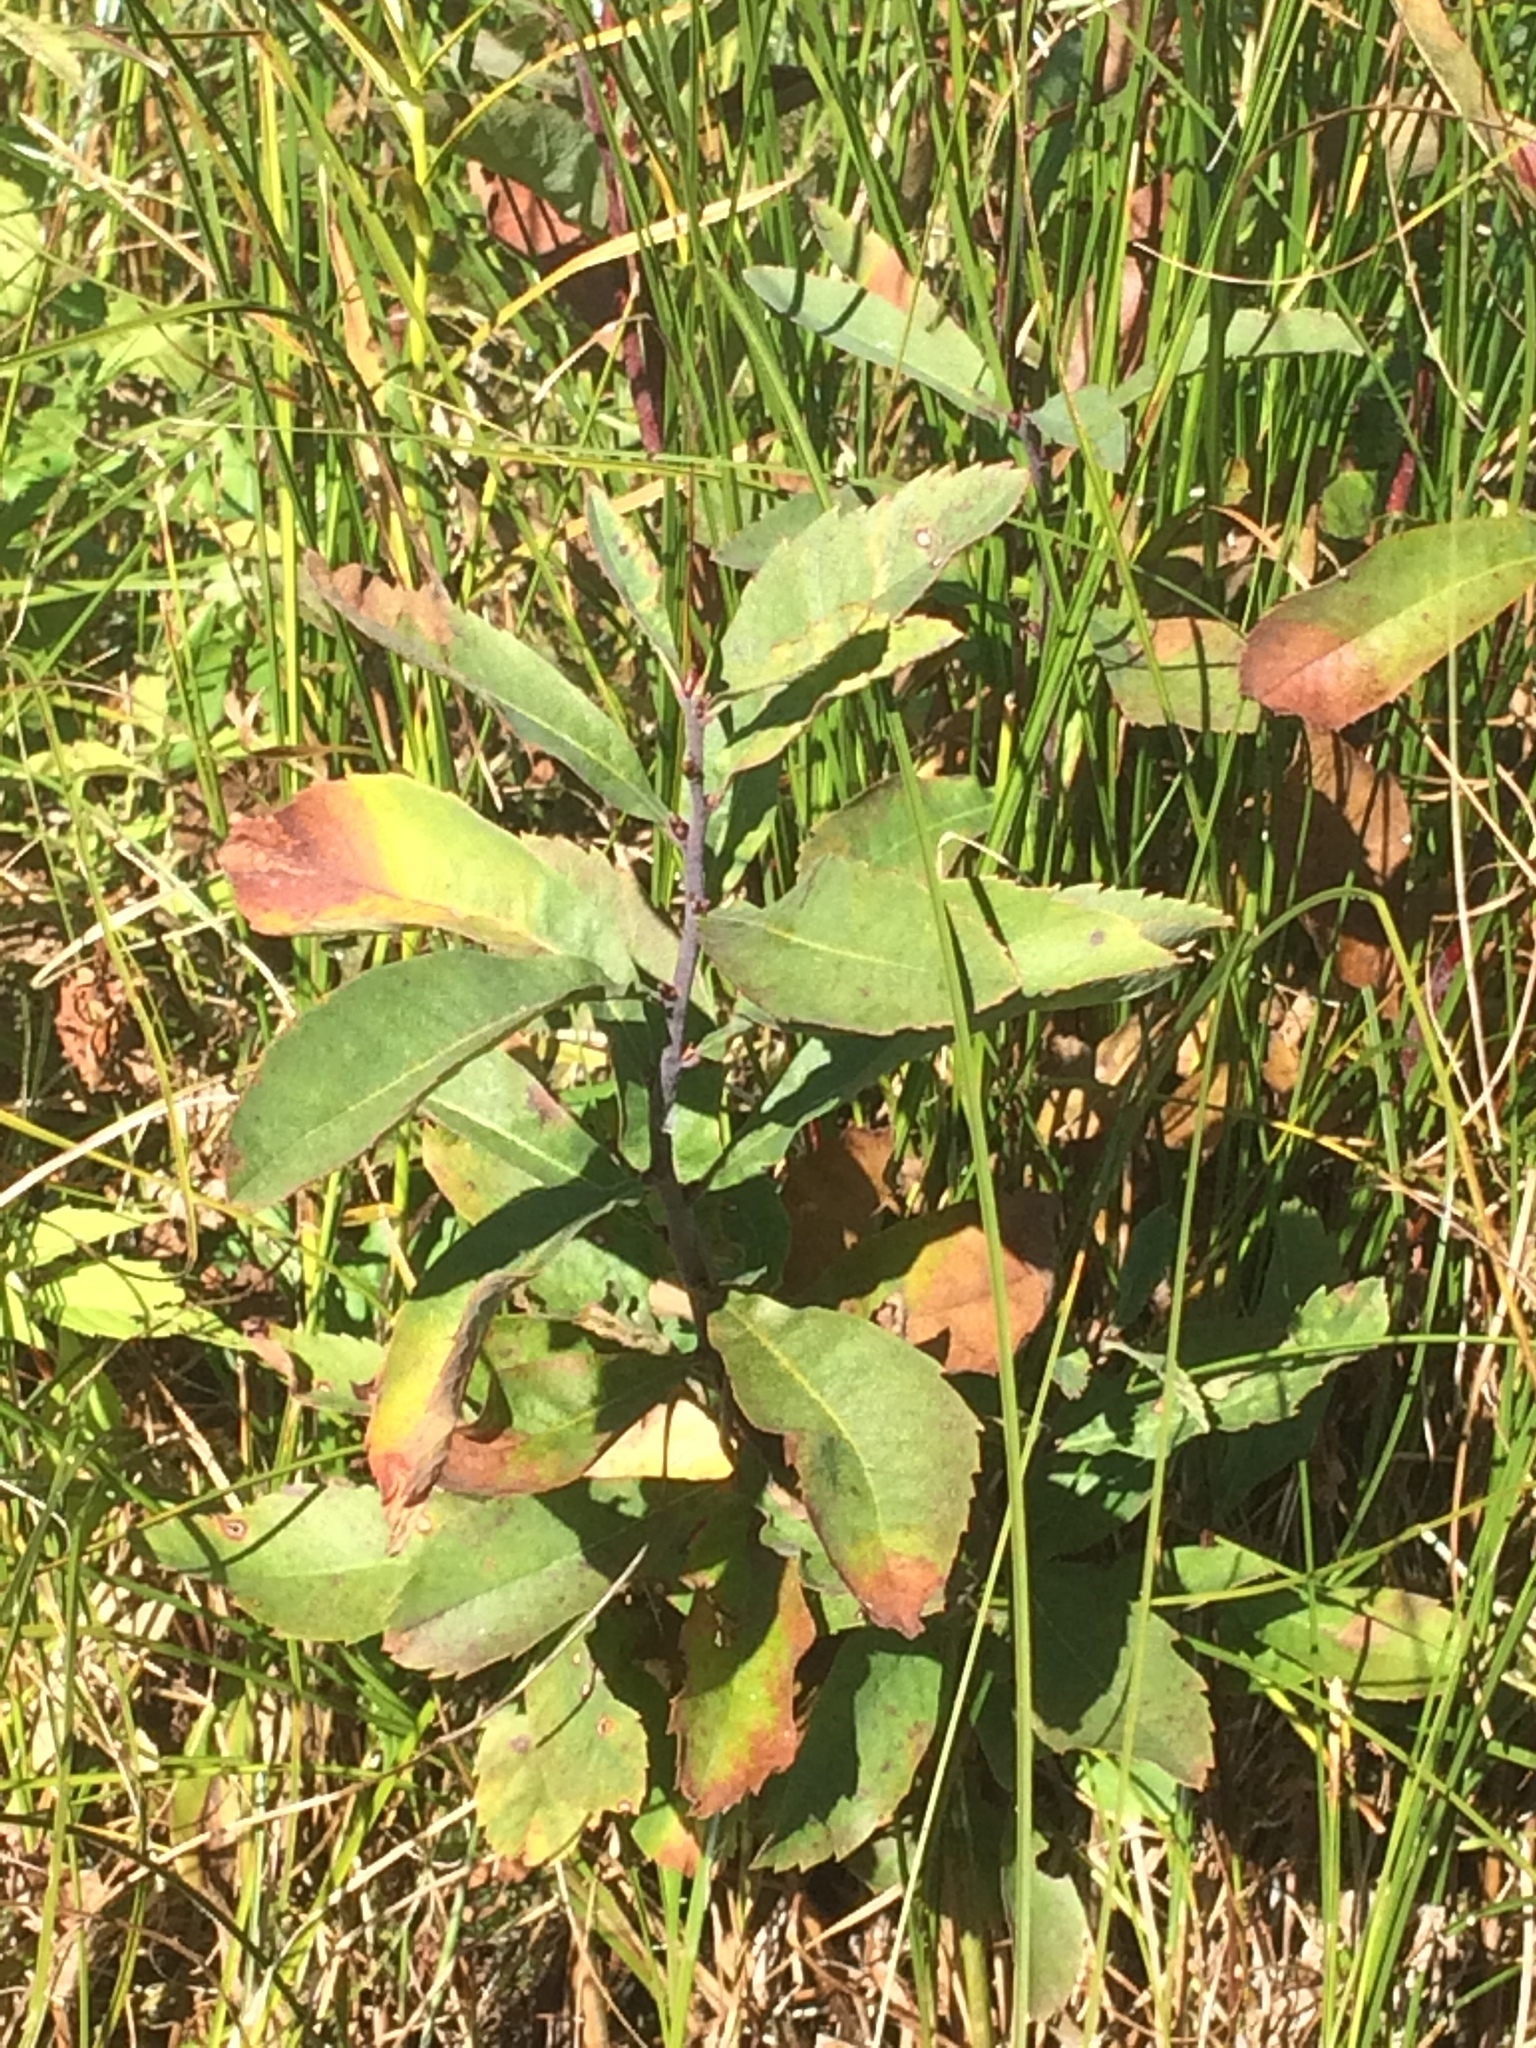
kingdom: Plantae
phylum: Tracheophyta
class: Magnoliopsida
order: Fagales
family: Myricaceae
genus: Myrica
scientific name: Myrica gale
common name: Sweet gale
